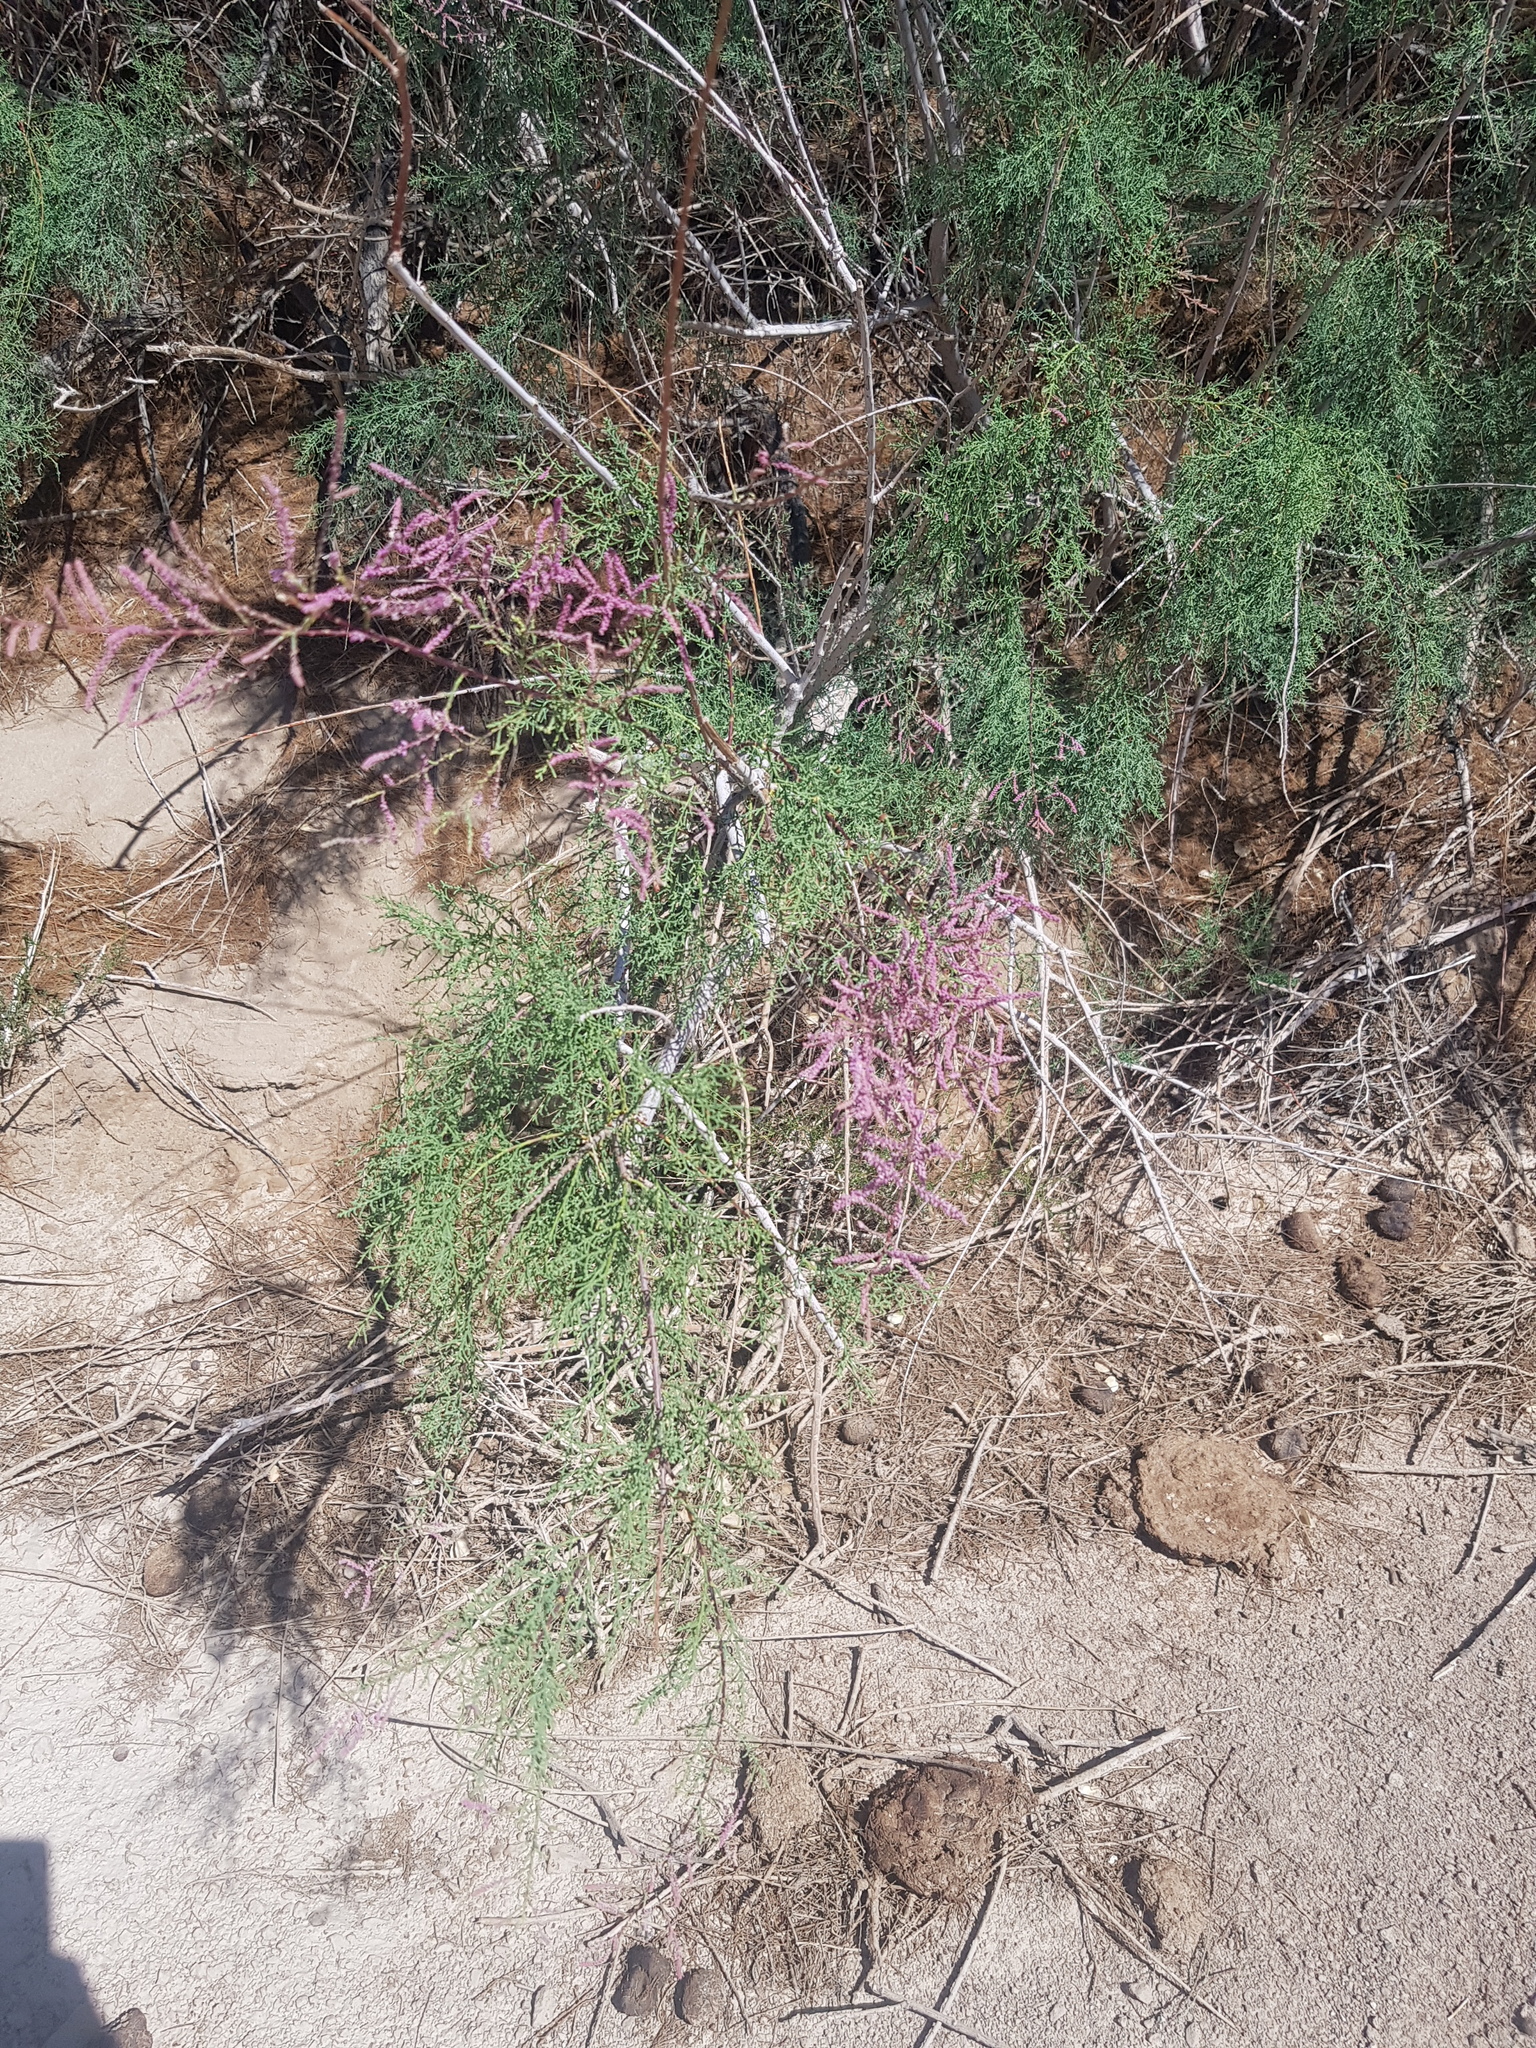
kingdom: Plantae
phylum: Tracheophyta
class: Magnoliopsida
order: Caryophyllales
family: Tamaricaceae
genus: Tamarix
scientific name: Tamarix kasahorum
